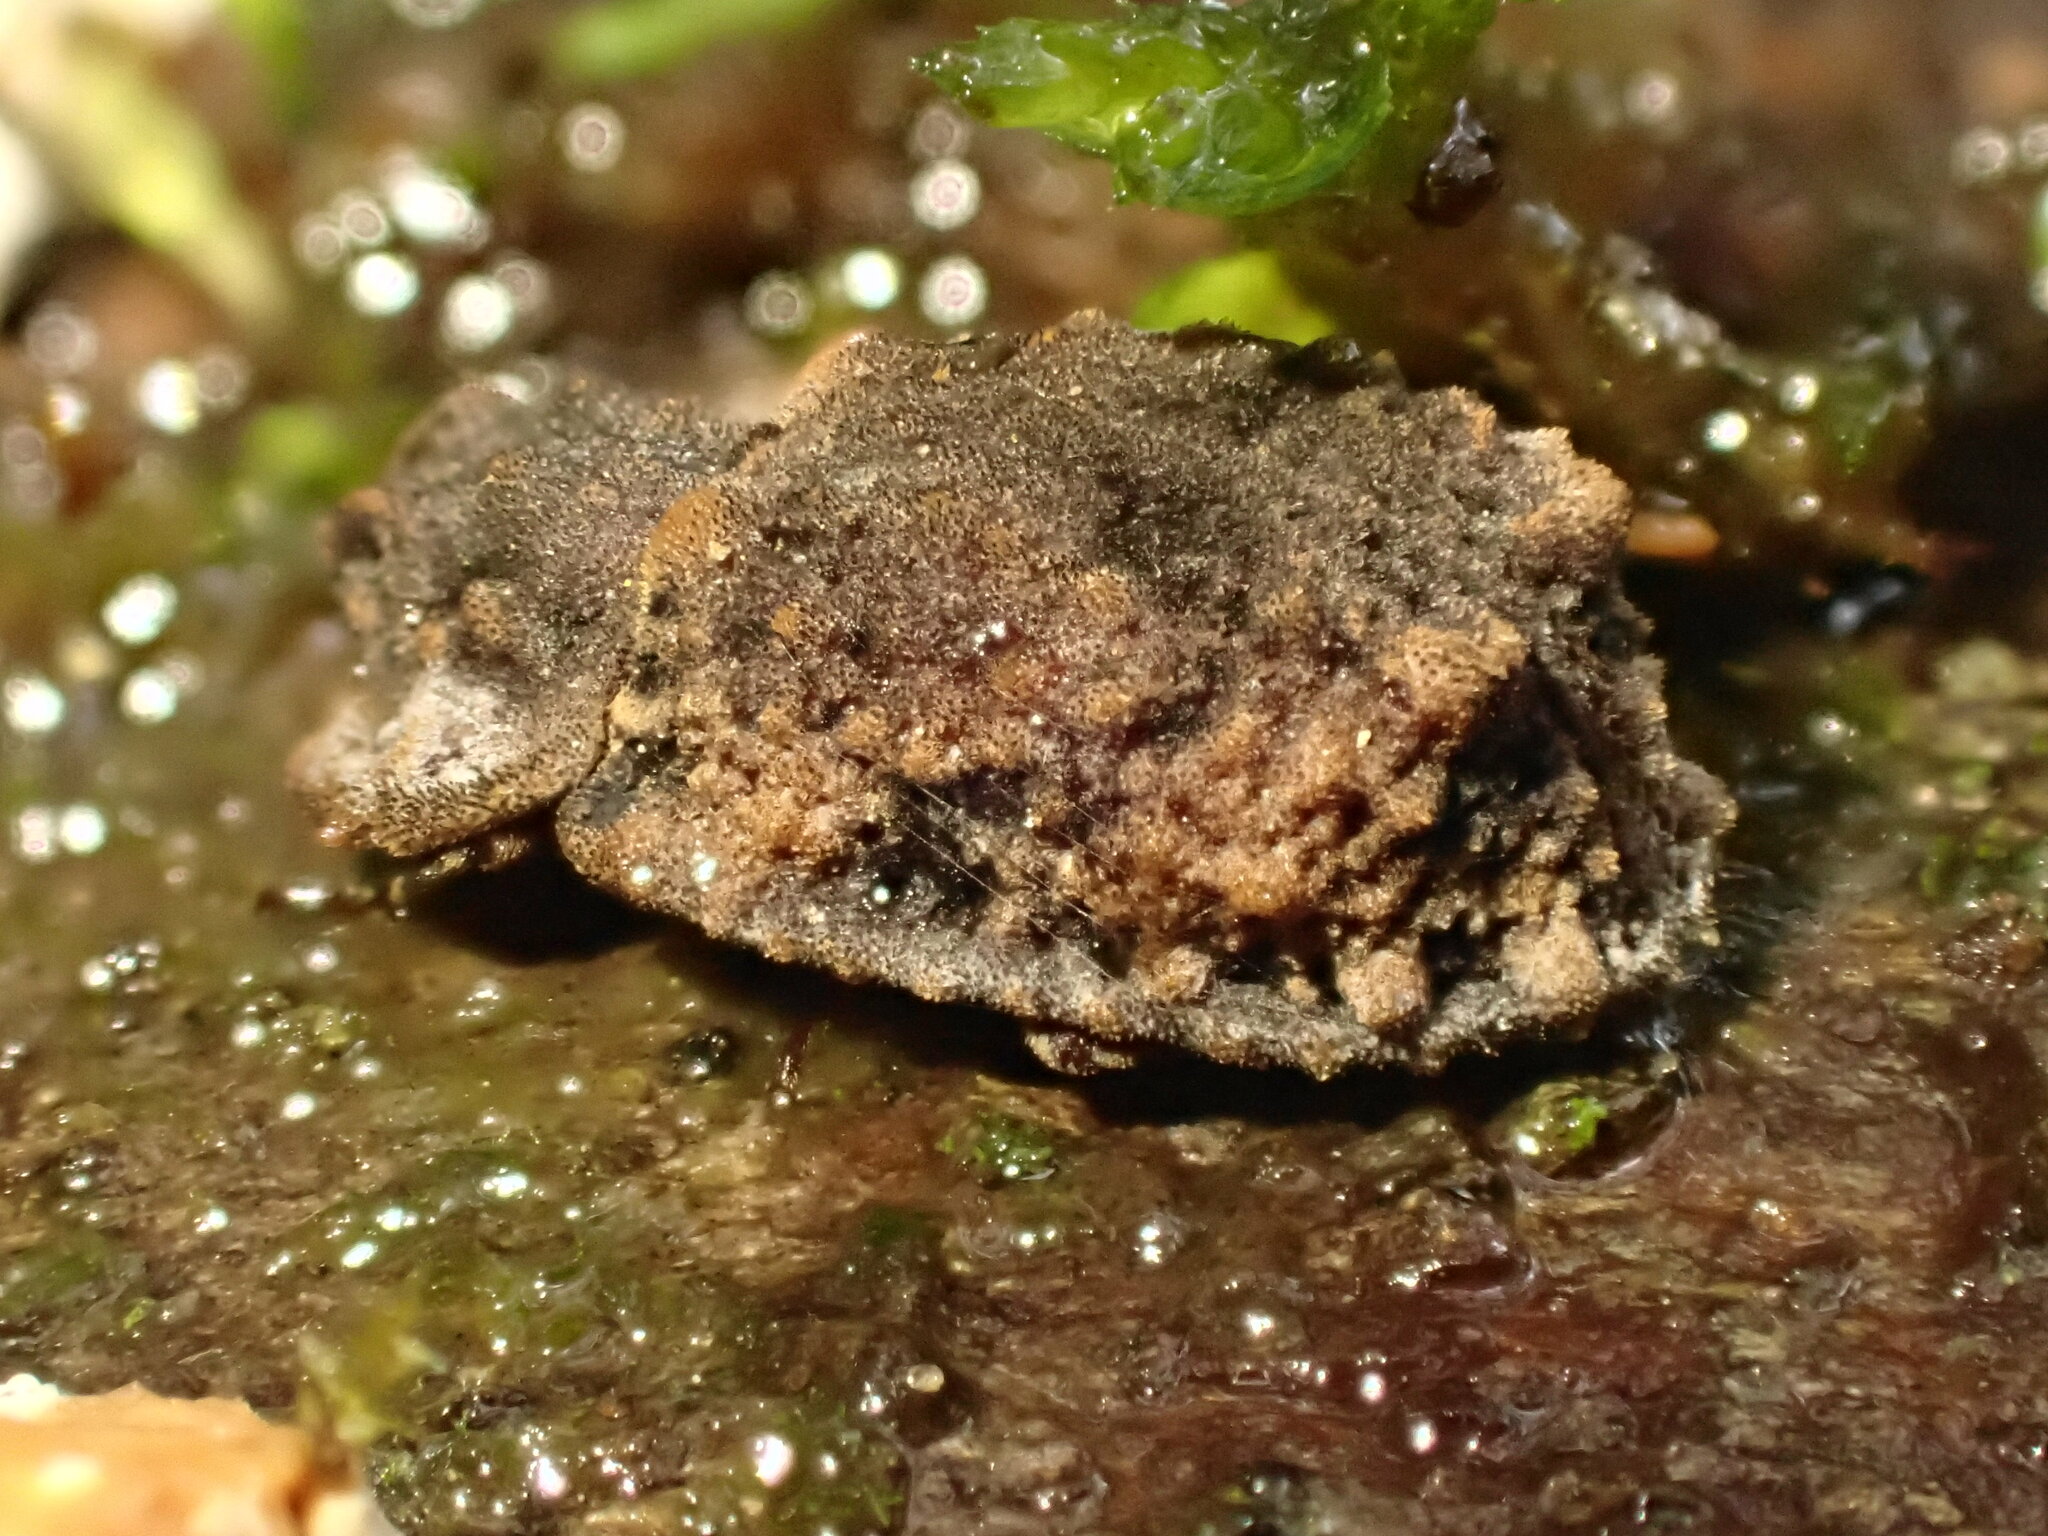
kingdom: Animalia
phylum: Arthropoda
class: Insecta
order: Coleoptera
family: Zopheridae
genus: Pristoderus
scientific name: Pristoderus
